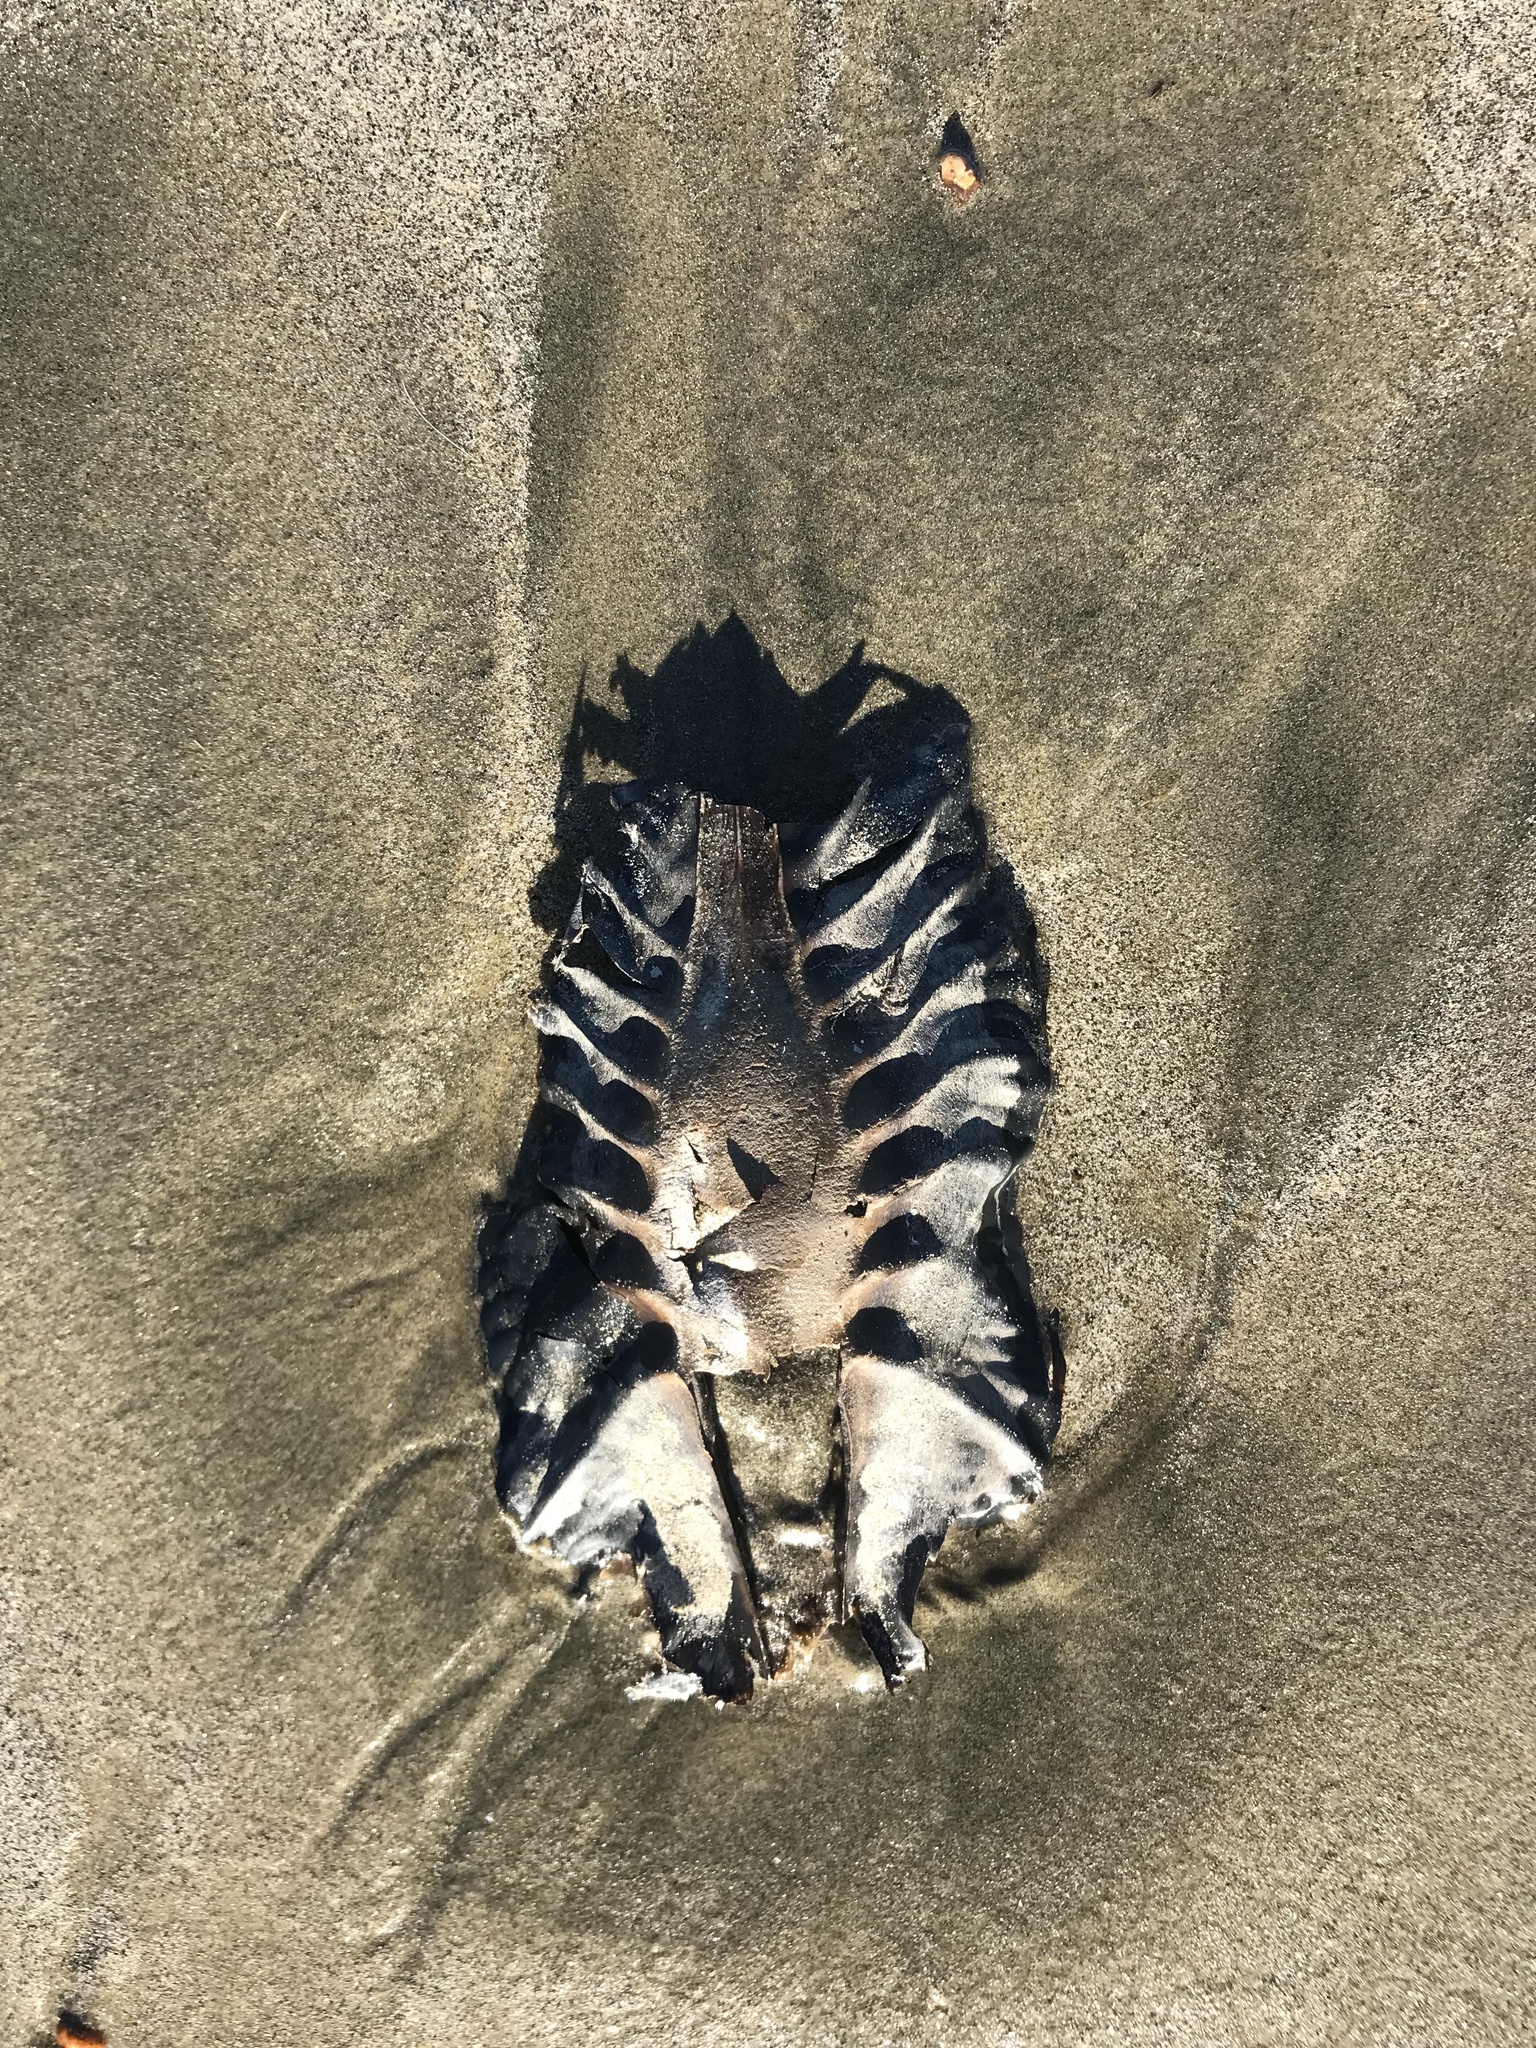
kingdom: Animalia
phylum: Chordata
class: Holocephali
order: Chimaeriformes
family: Callorhinchidae
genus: Callorhinchus
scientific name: Callorhinchus milii
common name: Elephant fish
